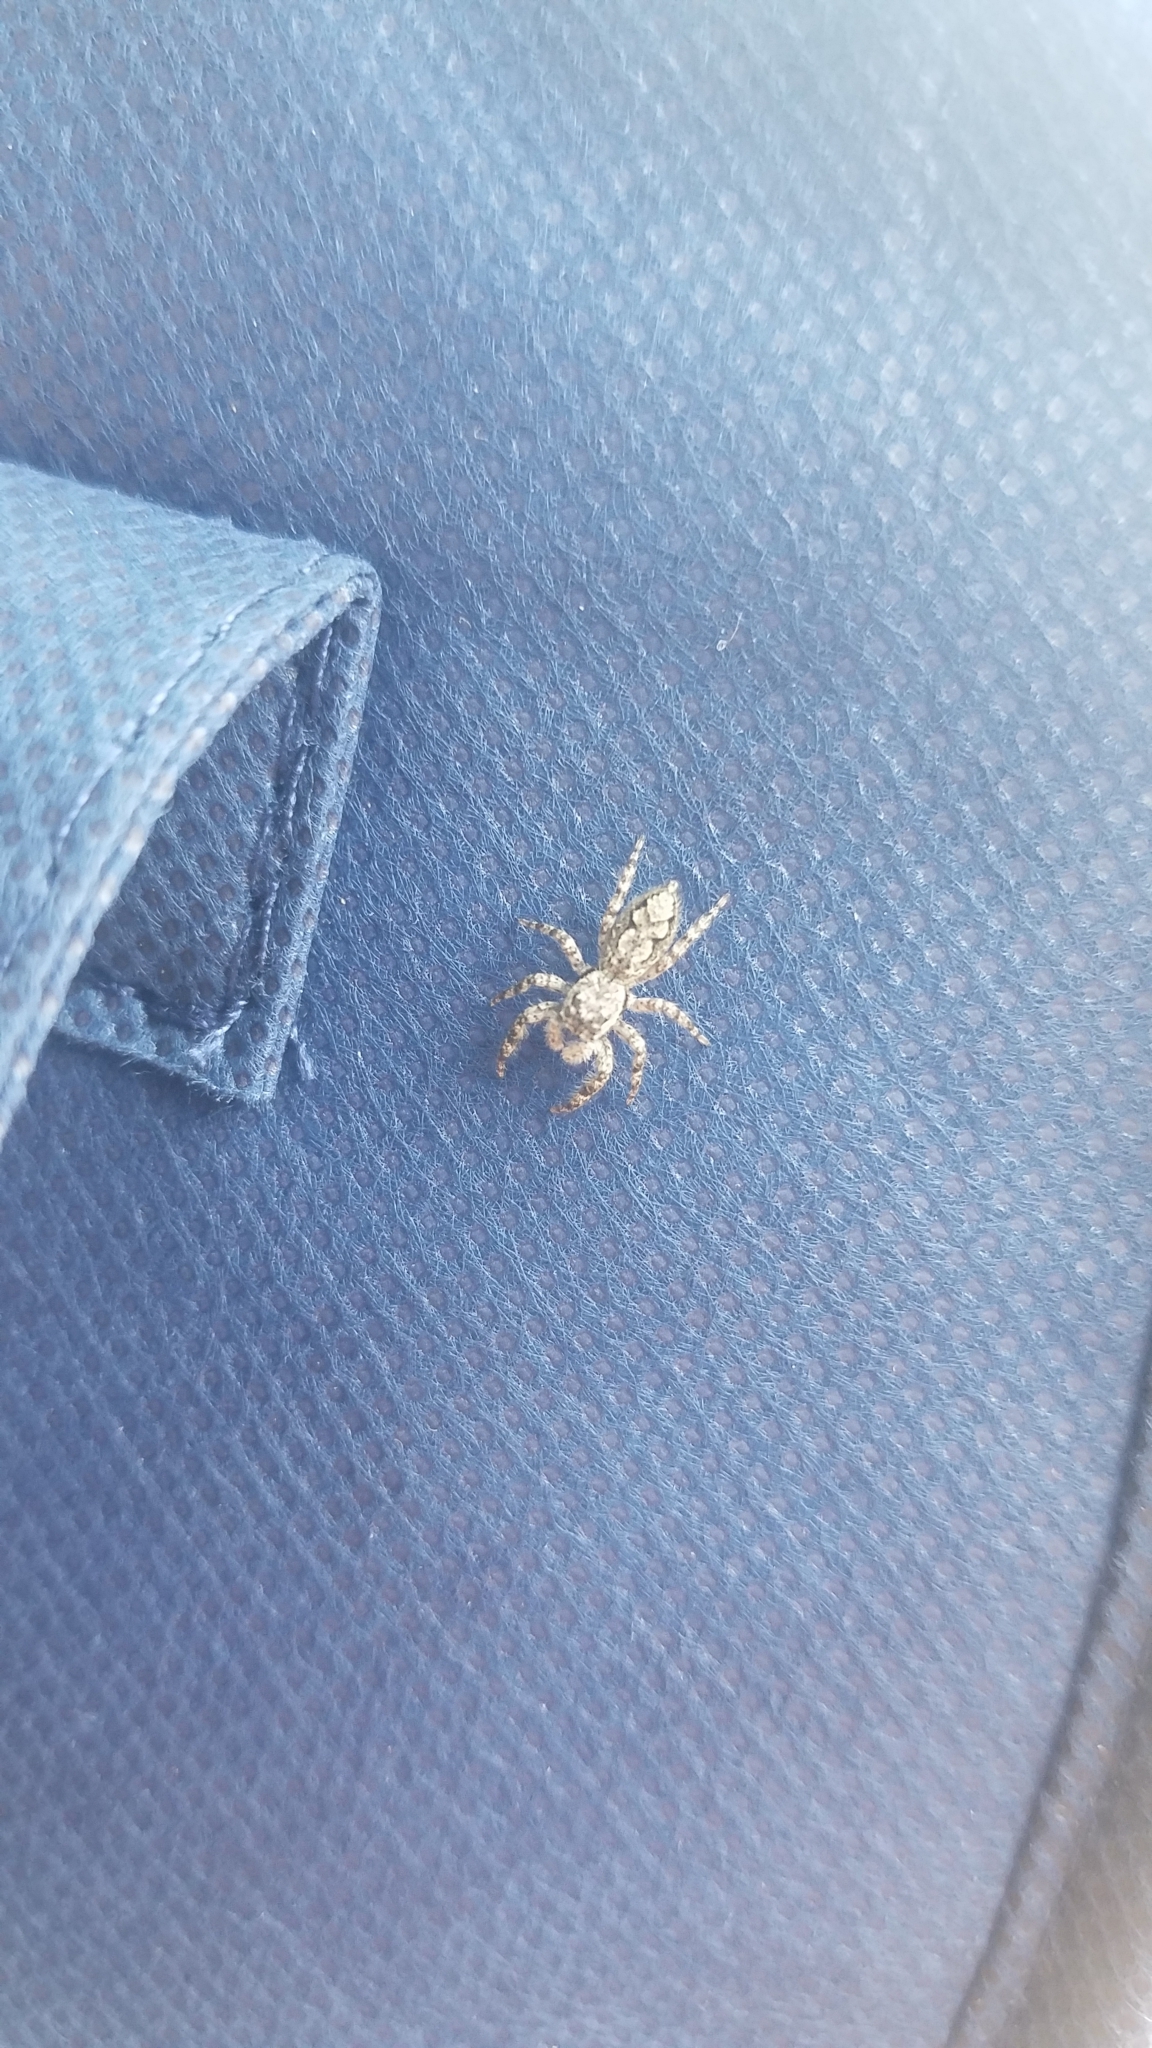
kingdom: Animalia
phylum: Arthropoda
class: Arachnida
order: Araneae
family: Salticidae
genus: Platycryptus
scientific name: Platycryptus undatus
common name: Tan jumping spider
